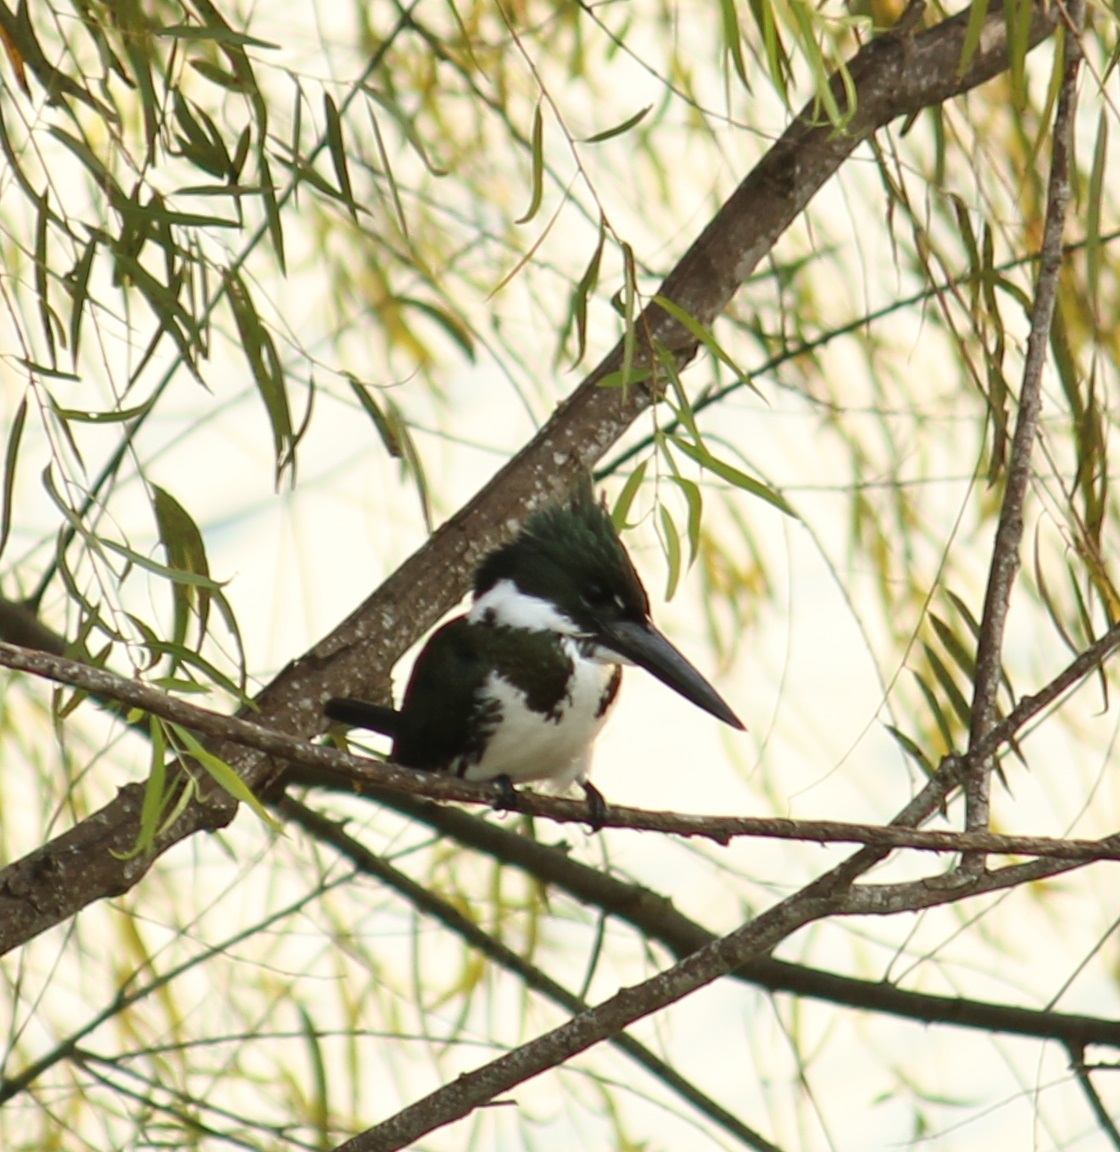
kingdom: Animalia
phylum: Chordata
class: Aves
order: Coraciiformes
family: Alcedinidae
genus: Chloroceryle
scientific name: Chloroceryle amazona
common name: Amazon kingfisher
